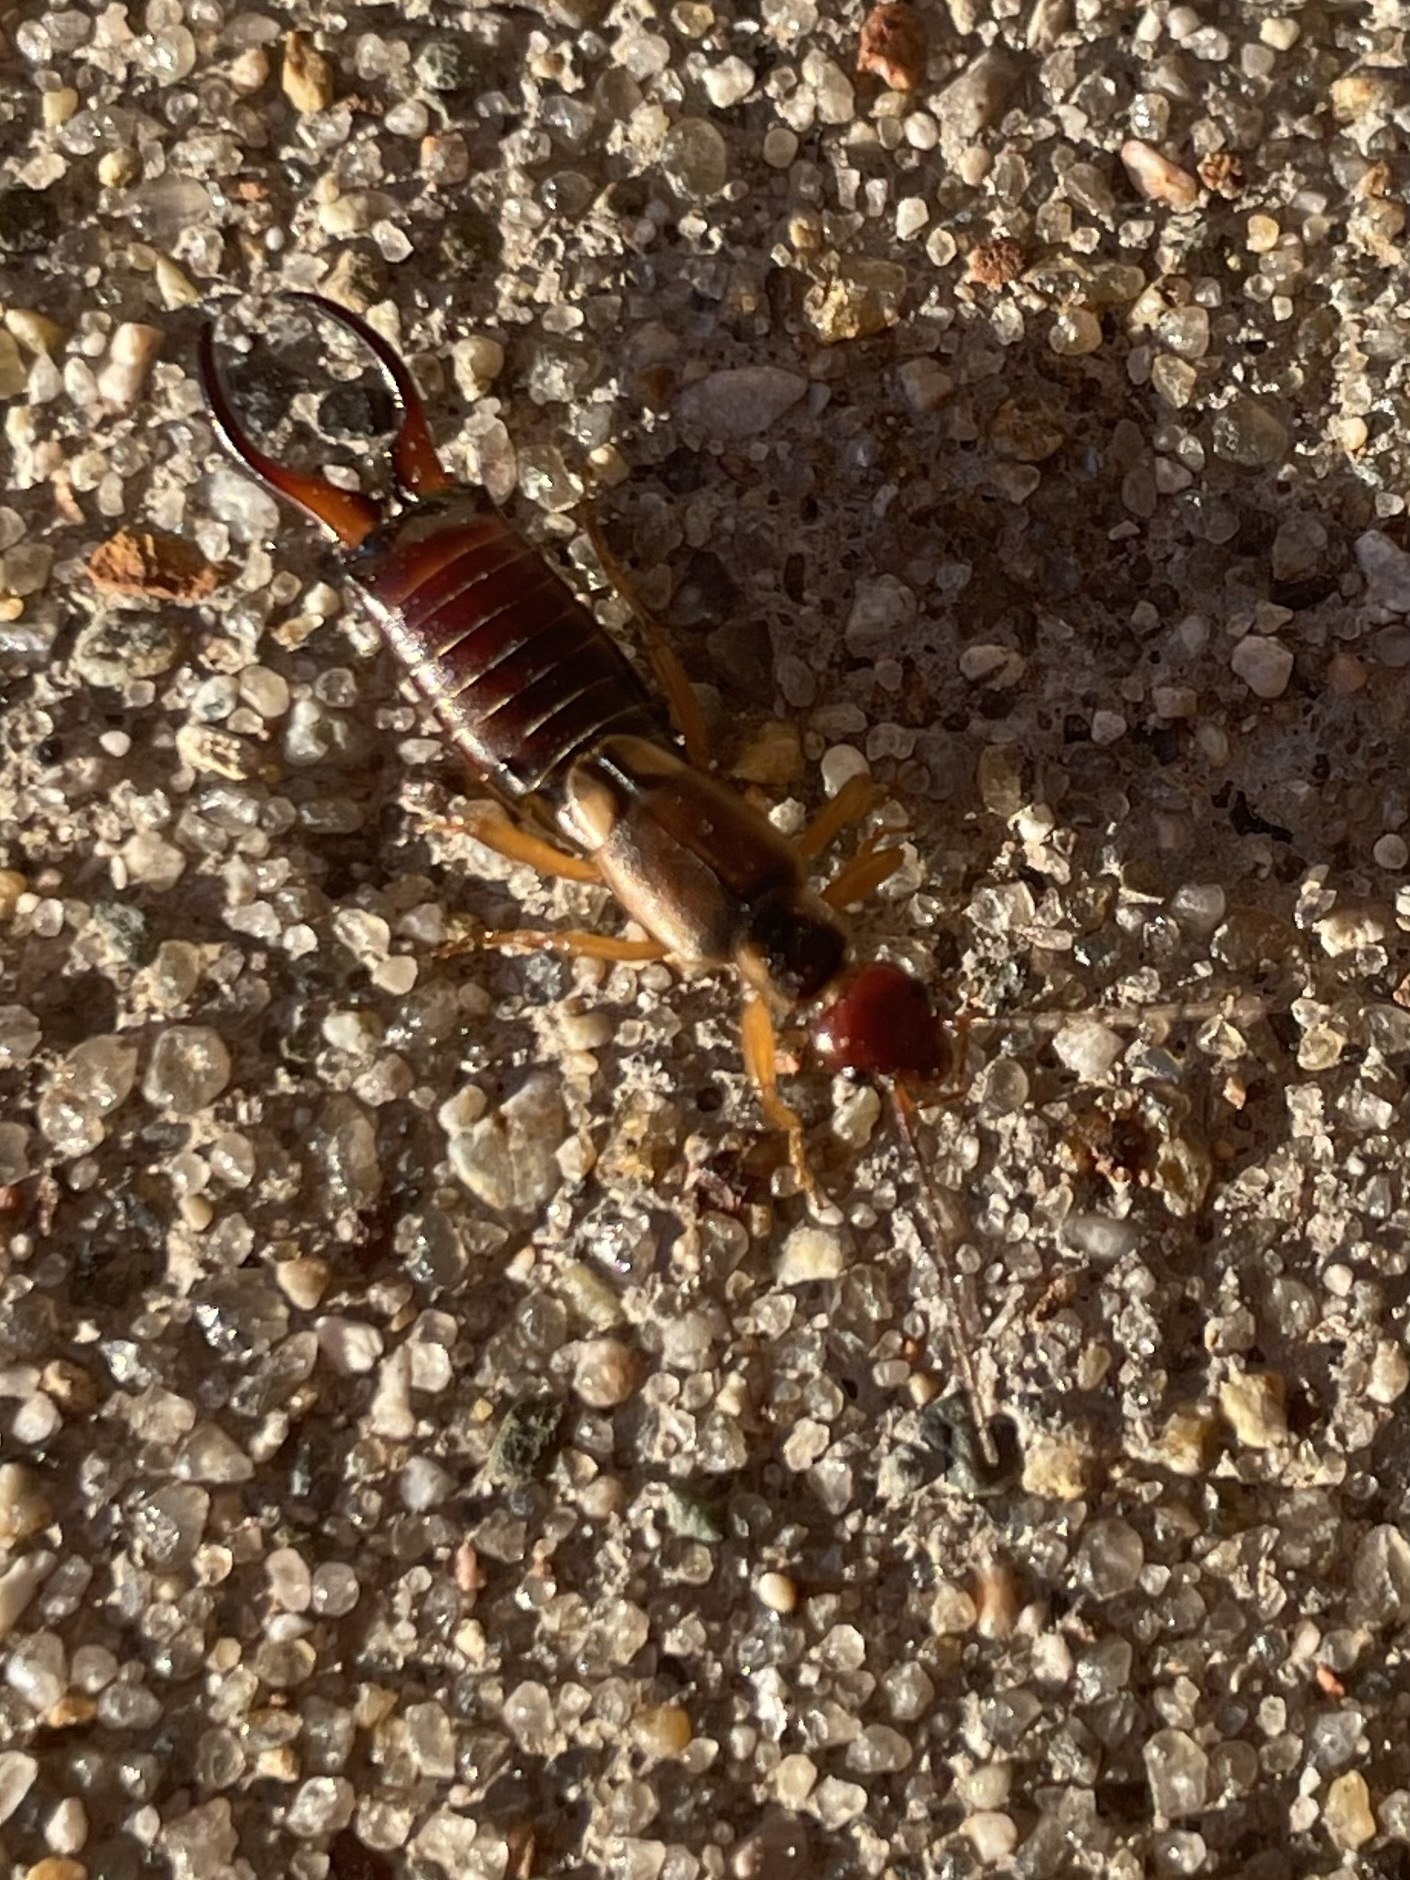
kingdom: Animalia
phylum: Arthropoda
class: Insecta
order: Dermaptera
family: Forficulidae
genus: Forficula
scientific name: Forficula
